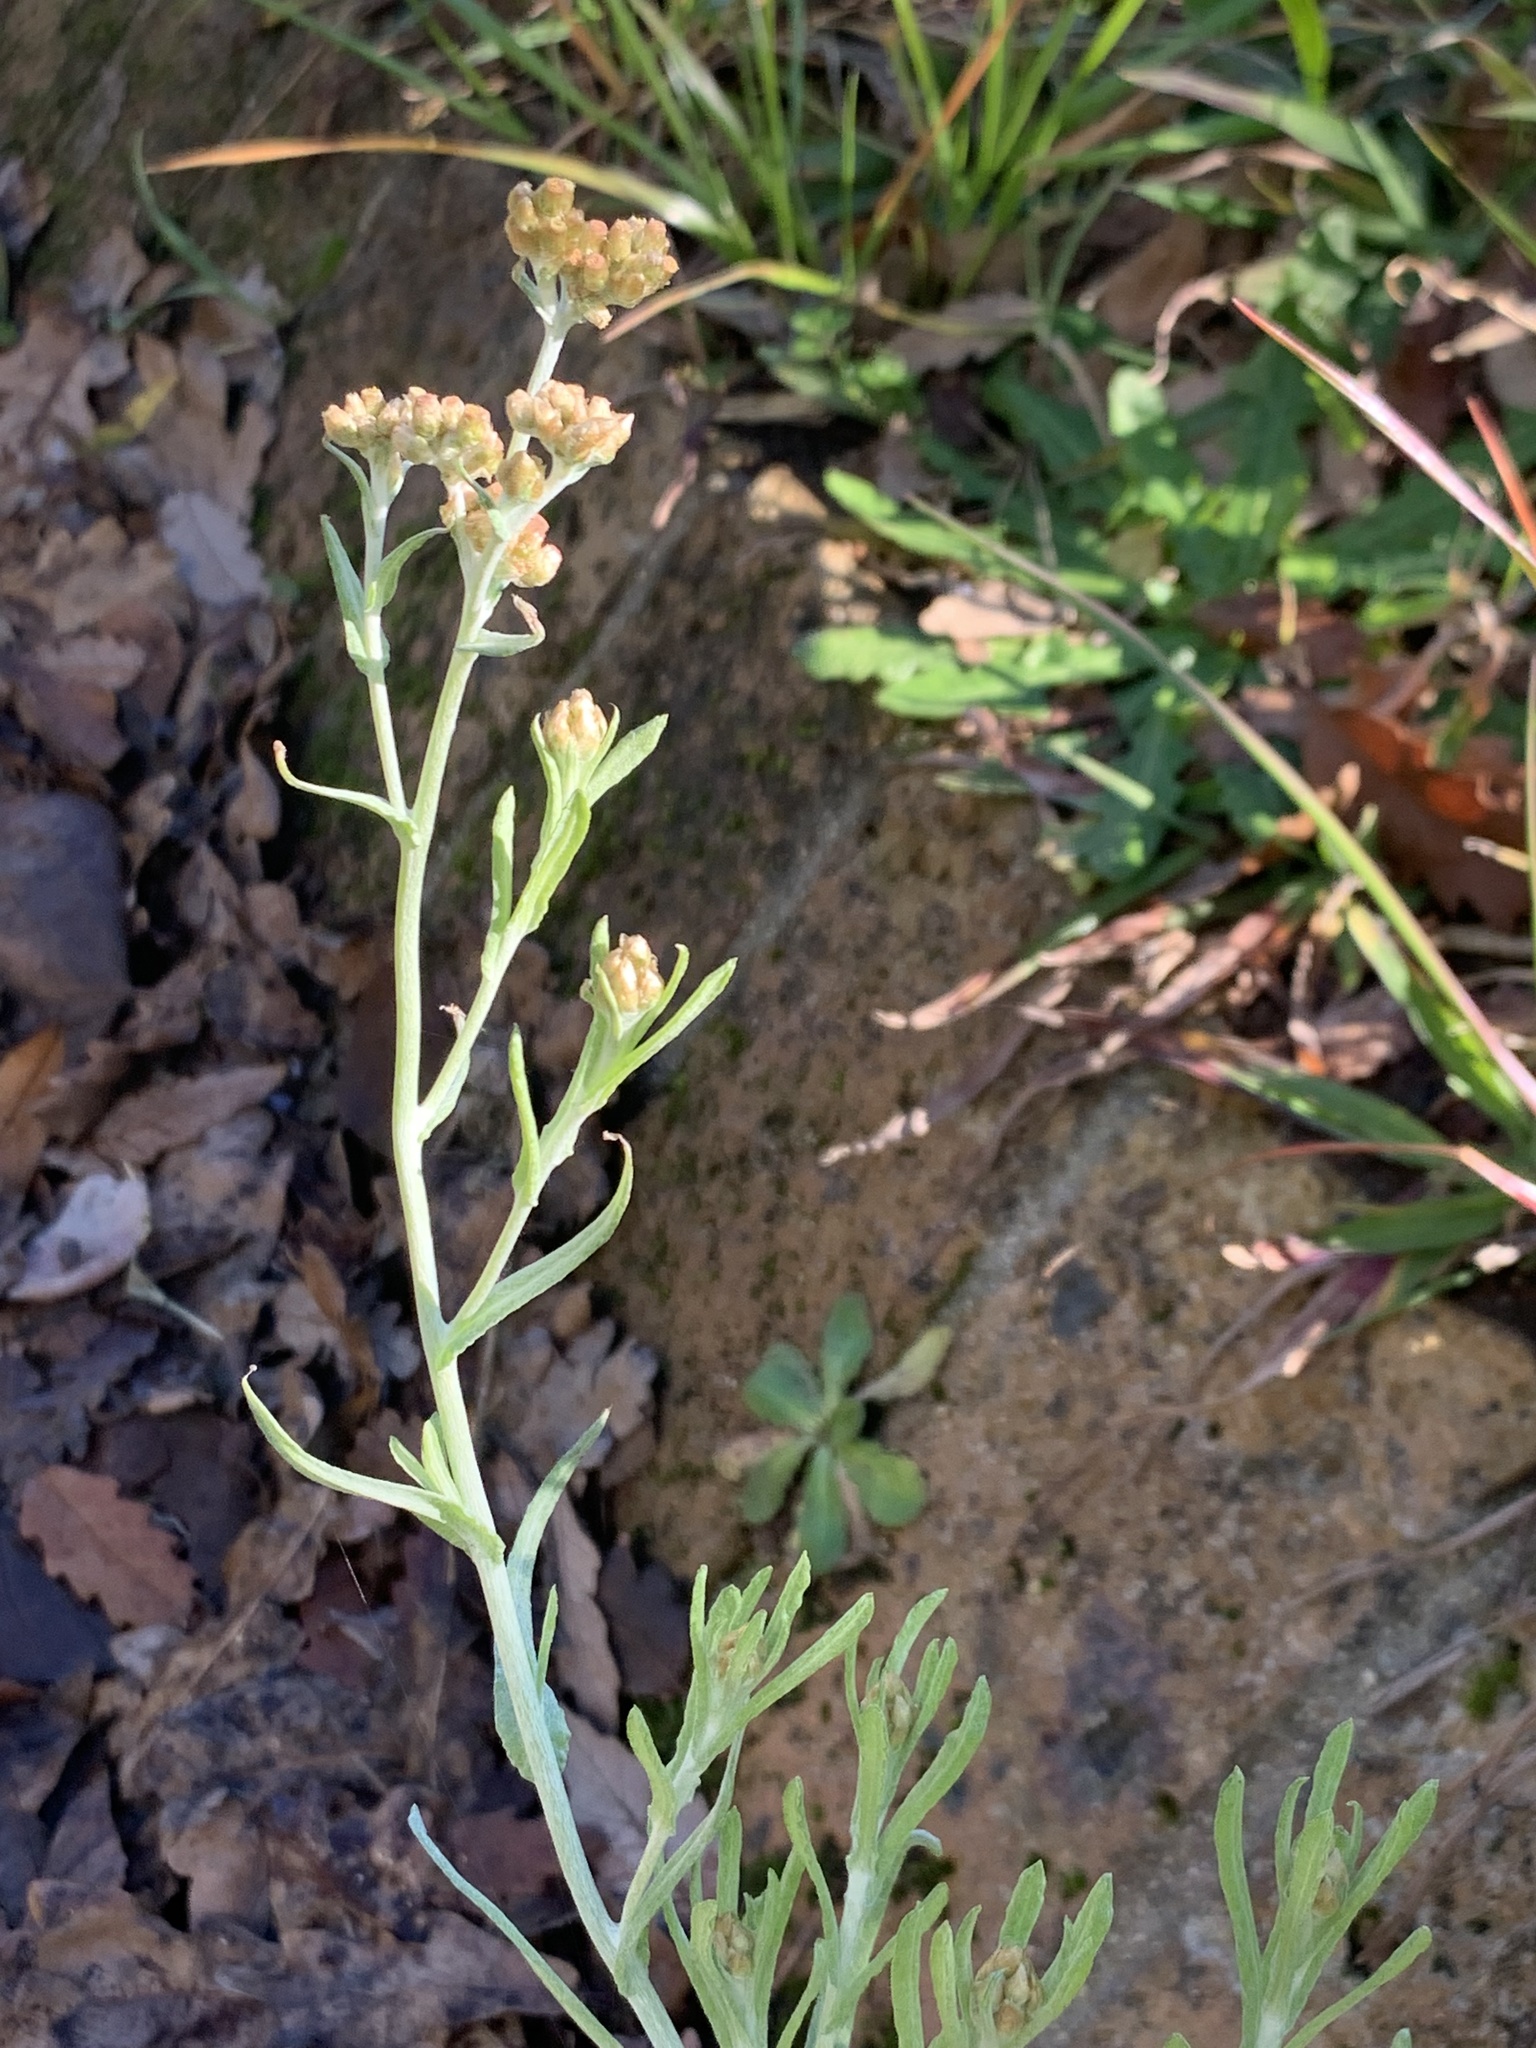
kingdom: Plantae
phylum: Tracheophyta
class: Magnoliopsida
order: Asterales
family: Asteraceae
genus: Helichrysum
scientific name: Helichrysum luteoalbum
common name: Daisy
